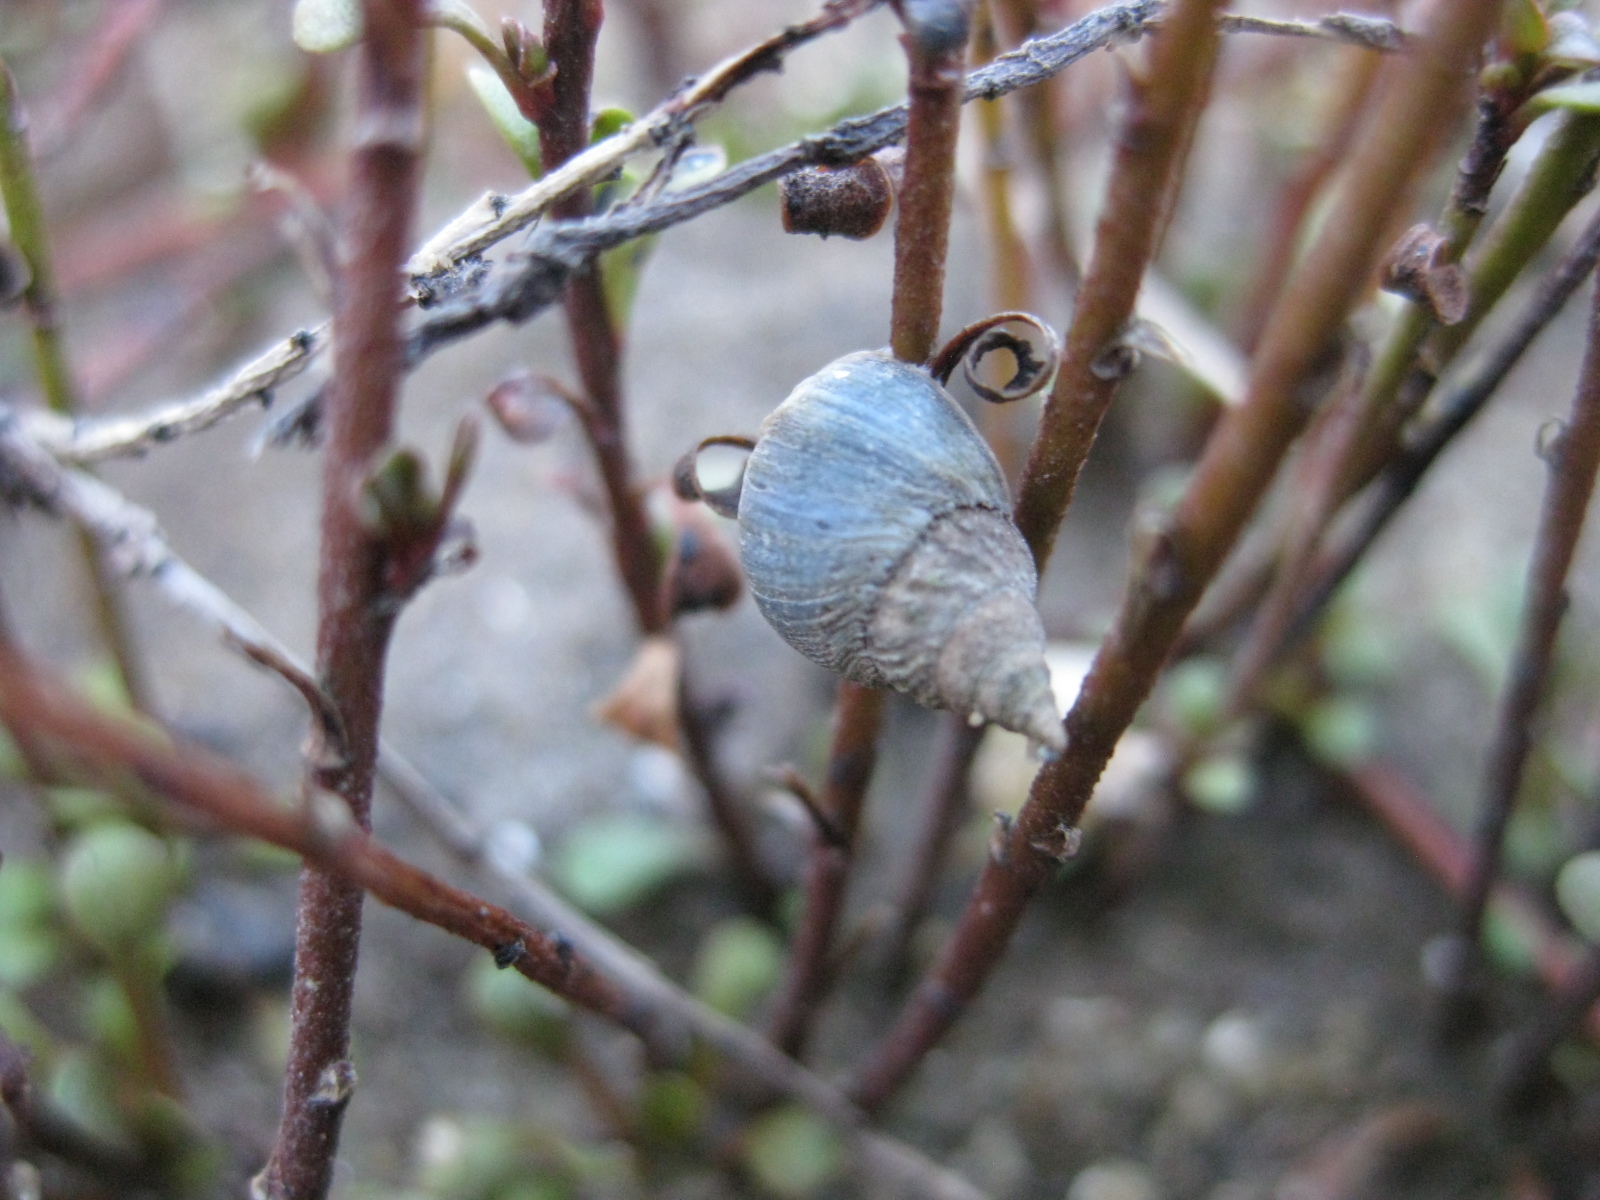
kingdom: Animalia
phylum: Mollusca
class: Gastropoda
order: Littorinimorpha
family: Littorinidae
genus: Austrolittorina
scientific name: Austrolittorina antipodum
